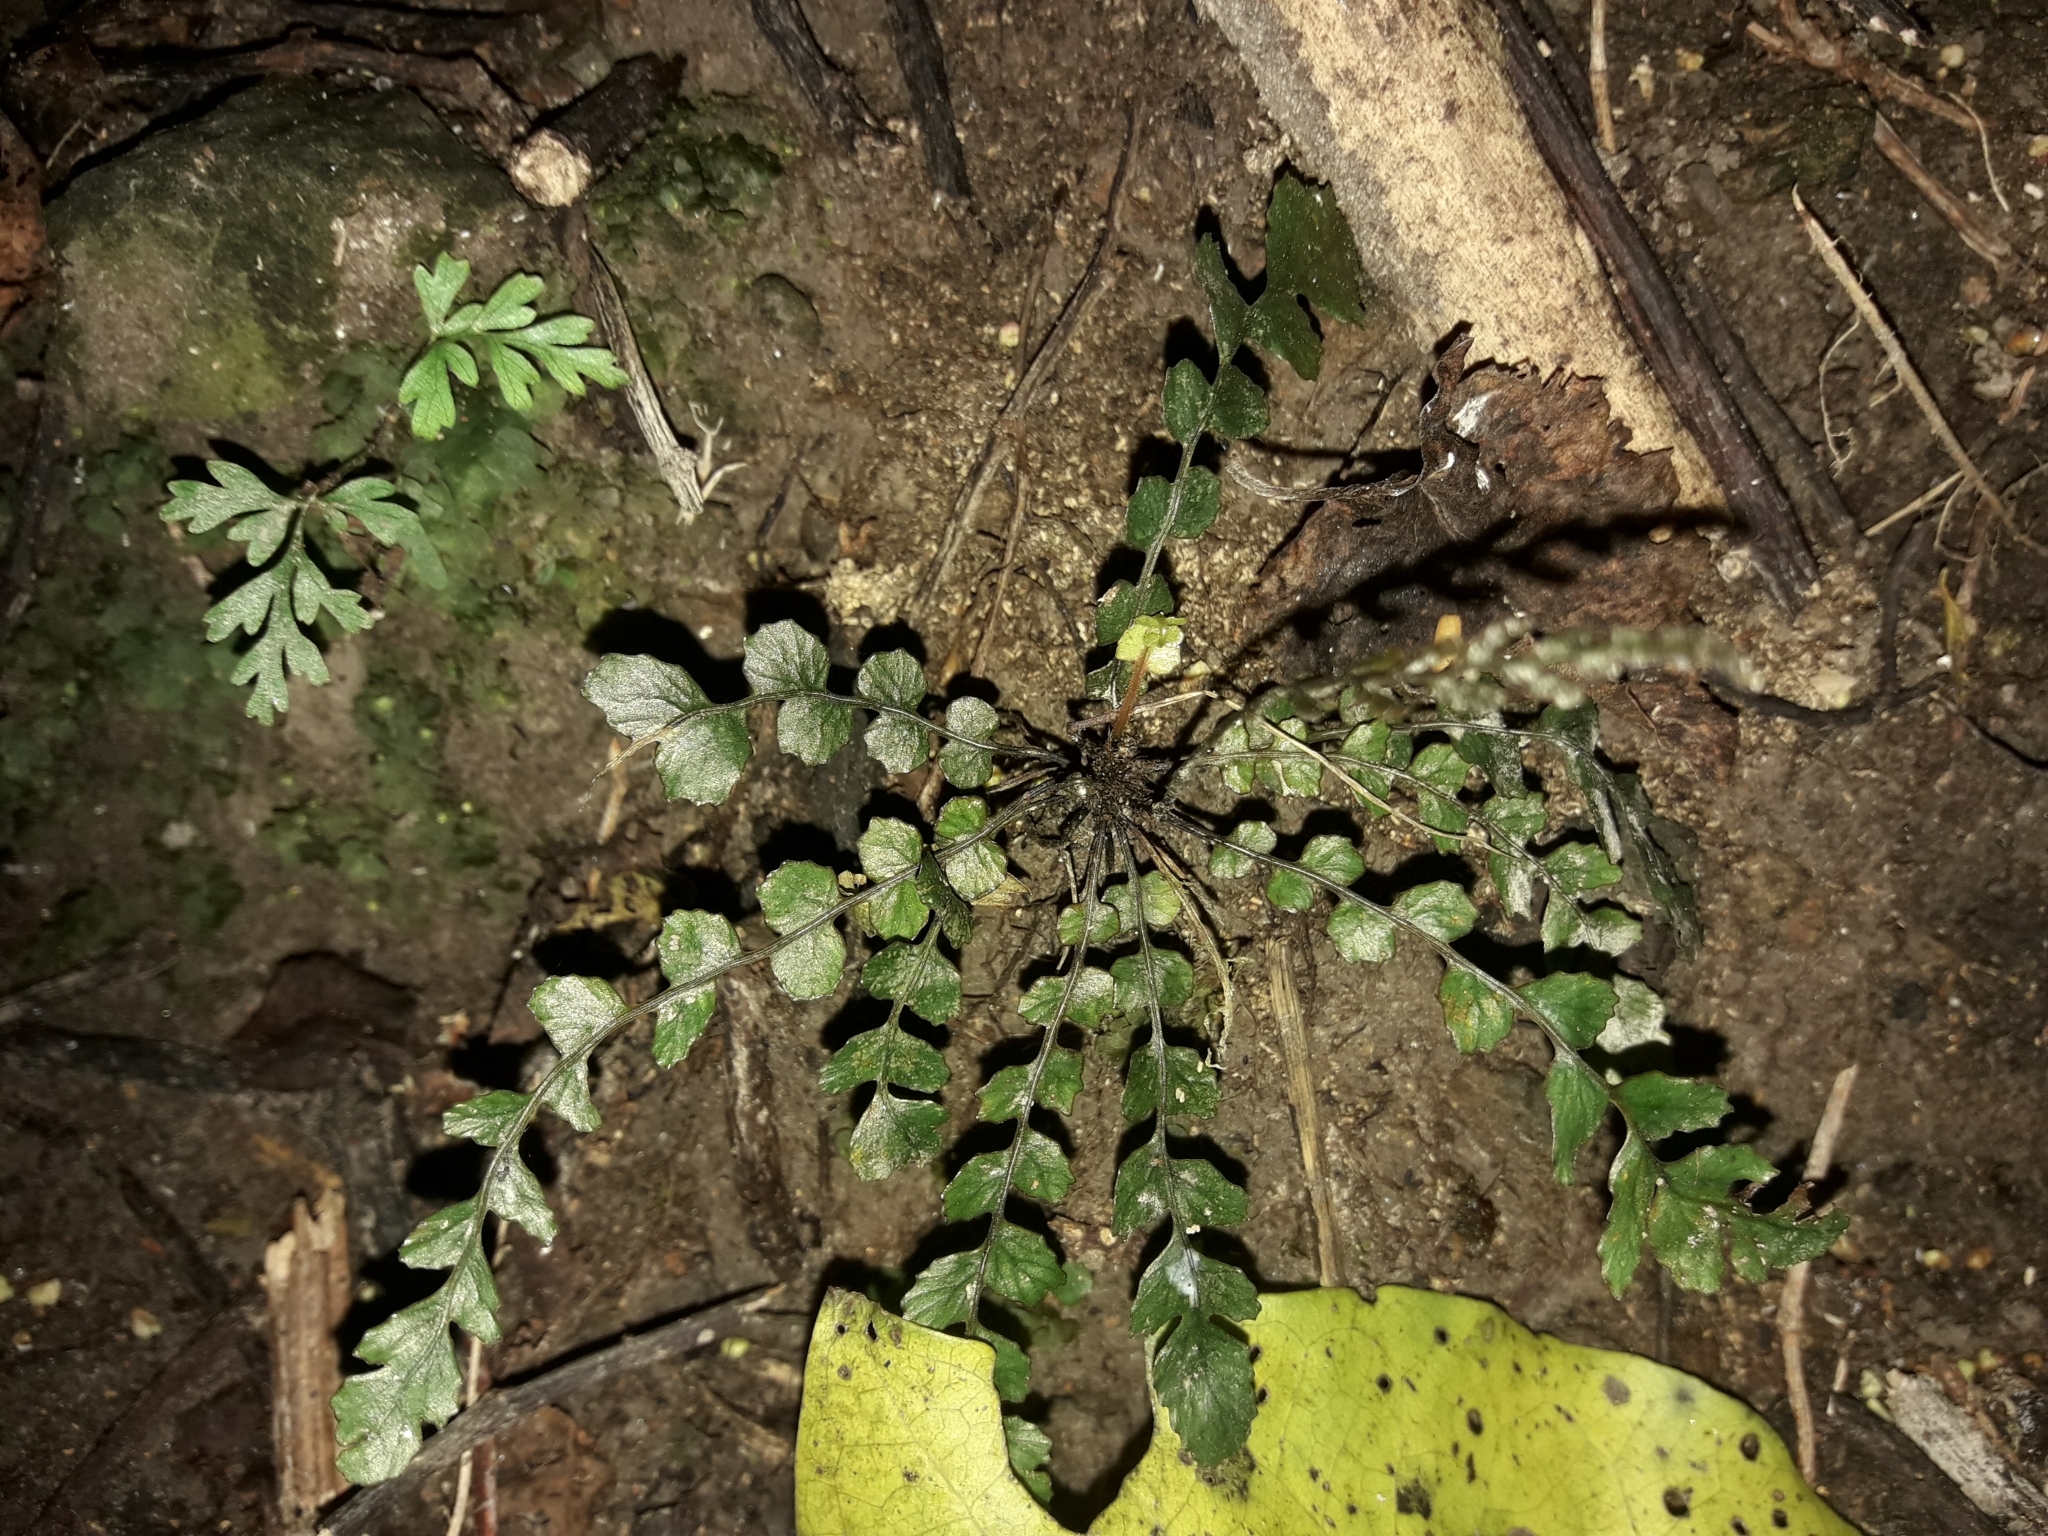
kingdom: Plantae
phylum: Tracheophyta
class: Polypodiopsida
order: Polypodiales
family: Blechnaceae
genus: Austroblechnum
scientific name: Austroblechnum membranaceum
